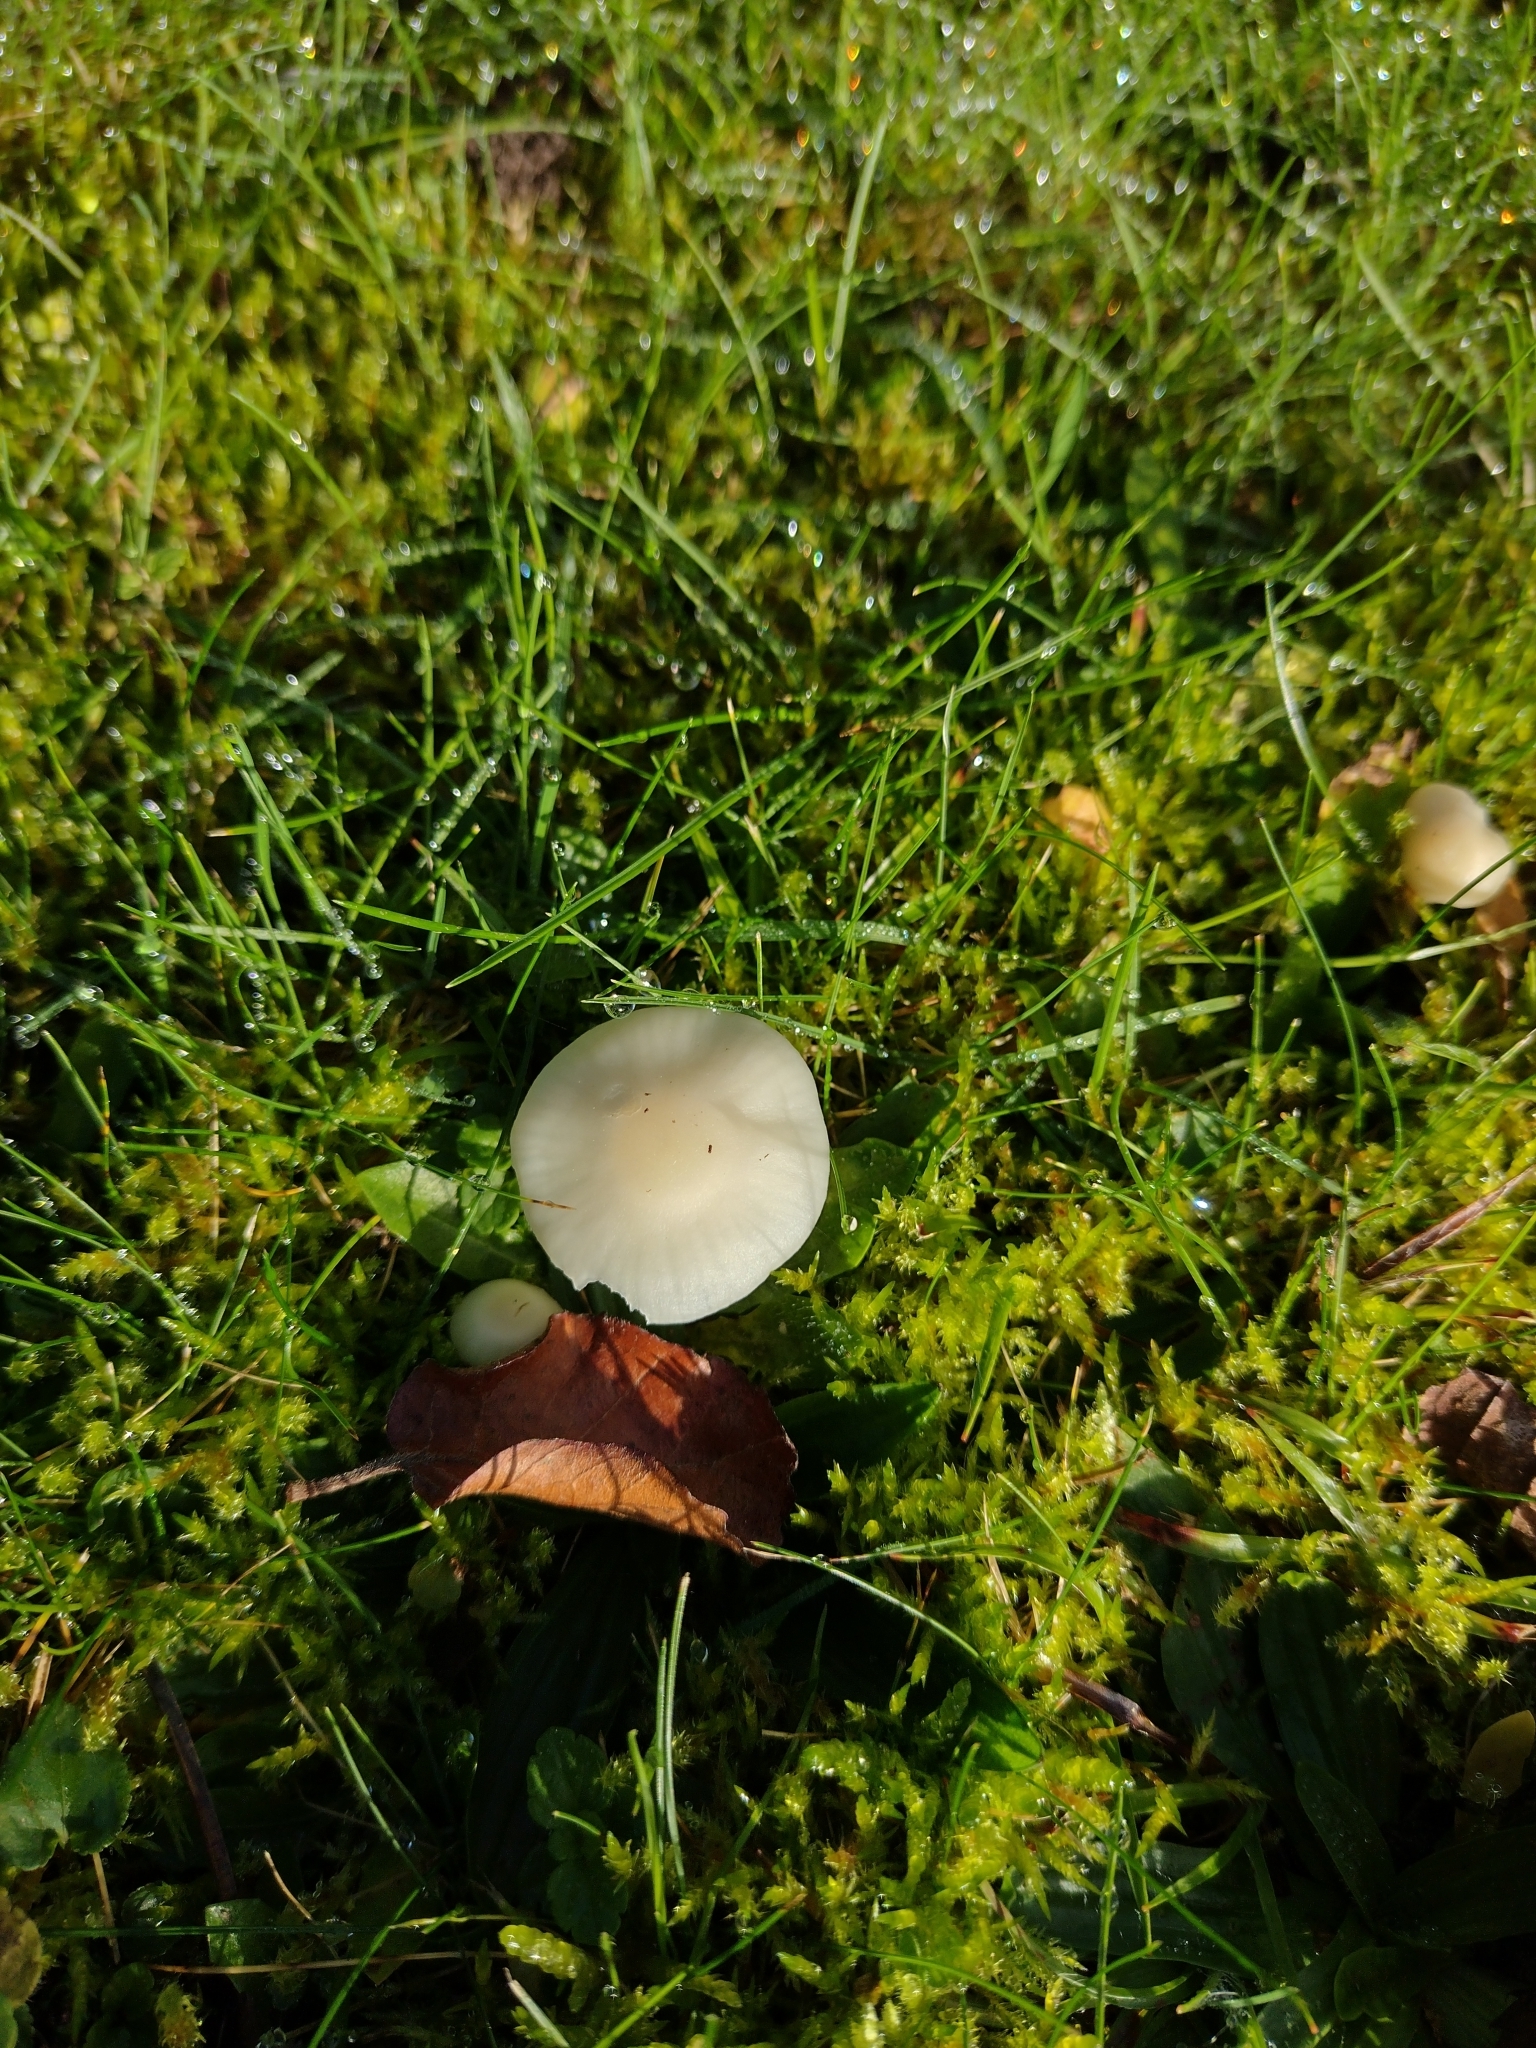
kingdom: Fungi
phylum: Basidiomycota
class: Agaricomycetes
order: Agaricales
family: Hygrophoraceae
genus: Cuphophyllus
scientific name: Cuphophyllus virgineus
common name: Snowy waxcap
